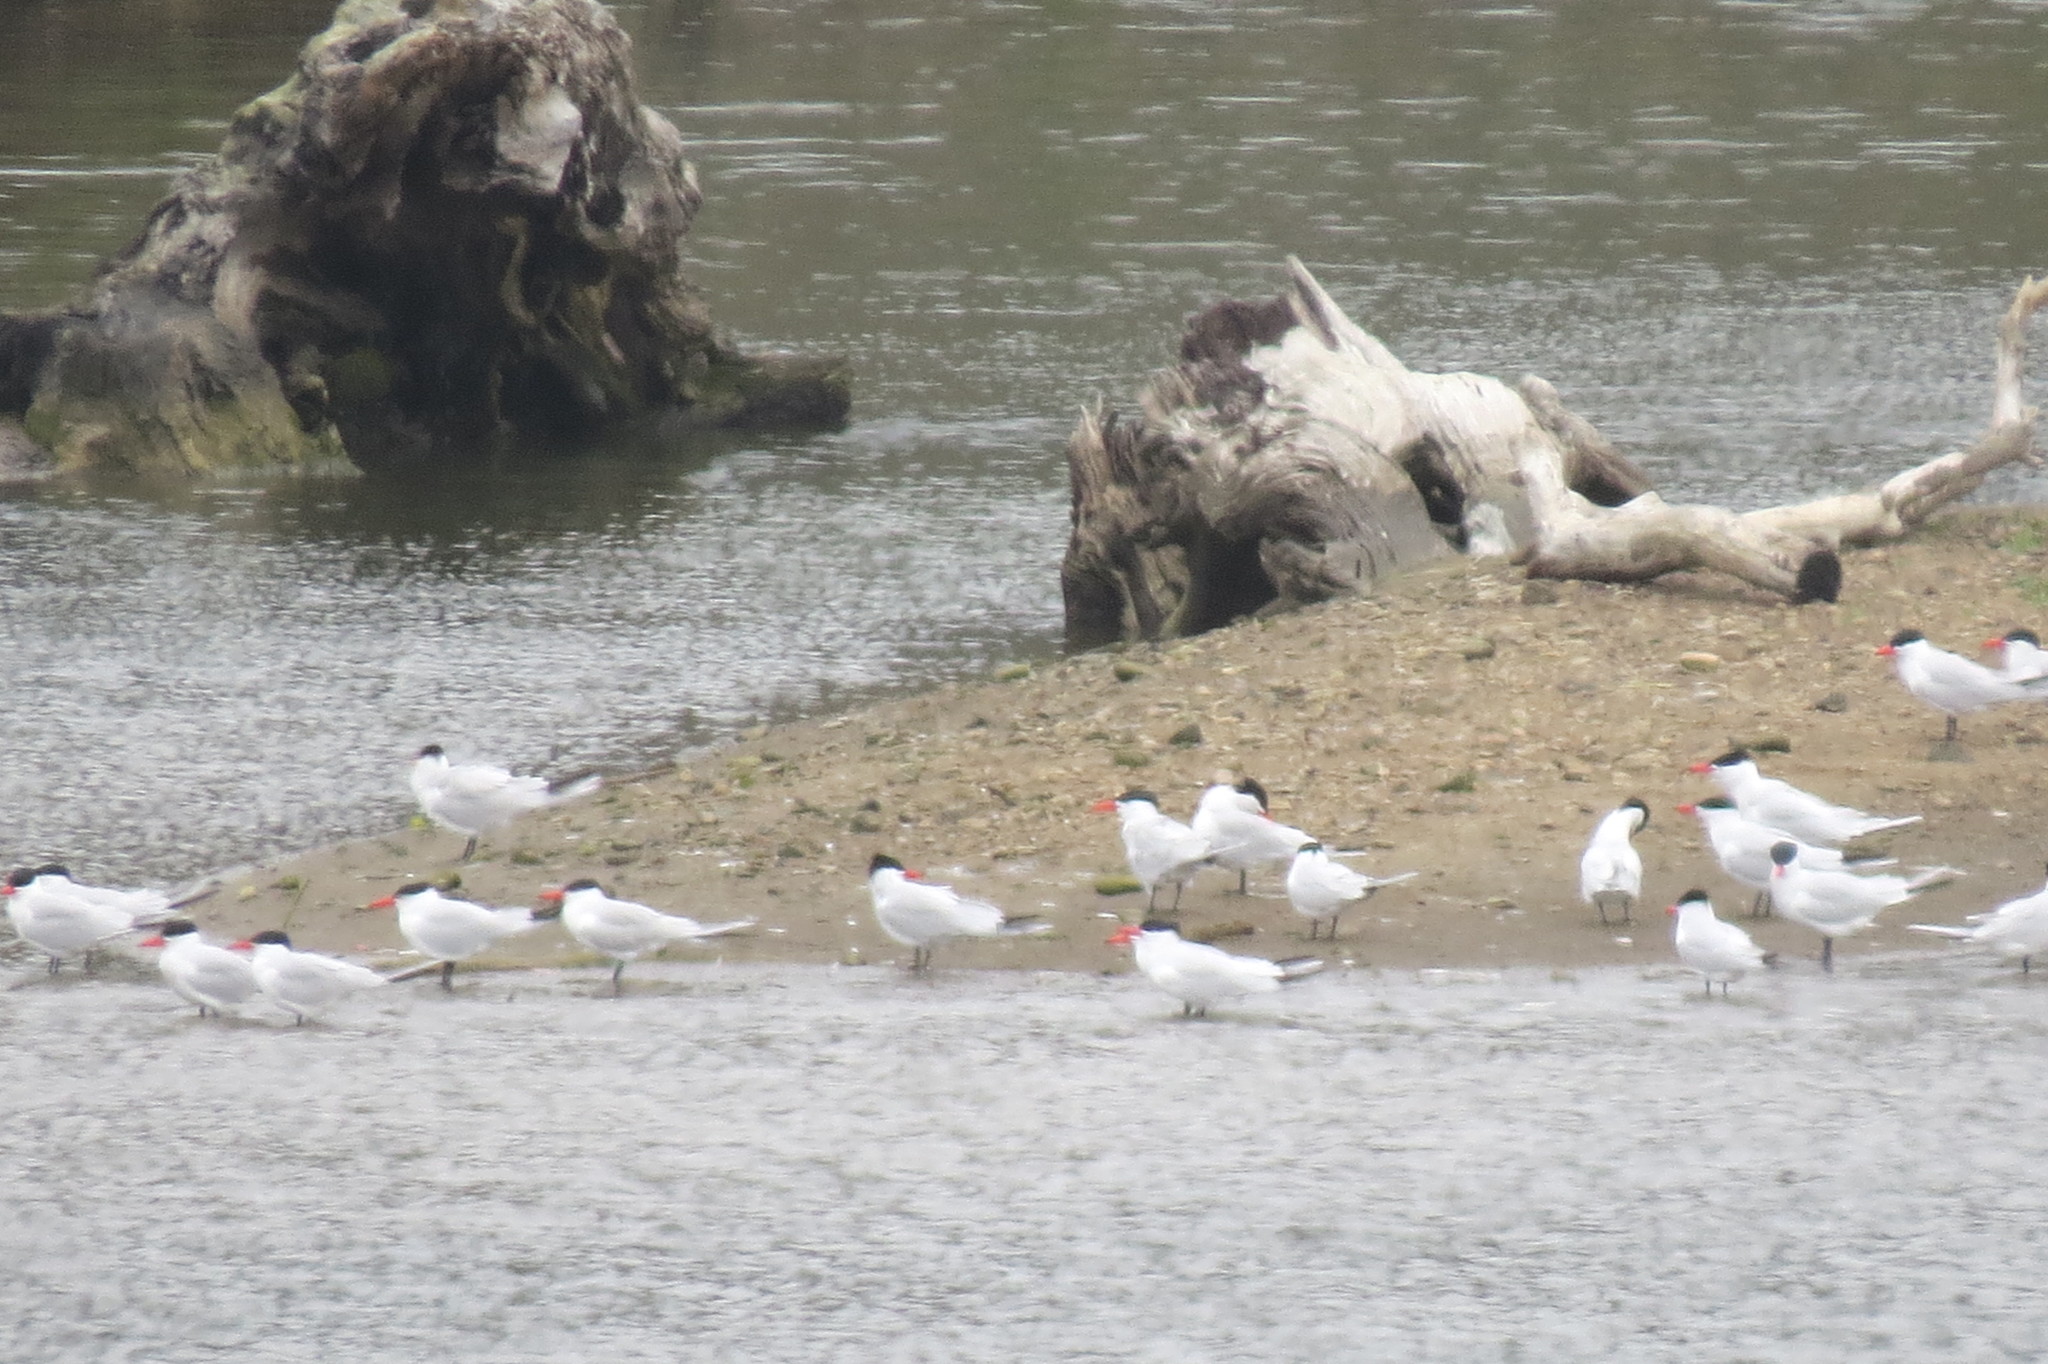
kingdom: Animalia
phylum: Chordata
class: Aves
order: Charadriiformes
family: Laridae
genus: Hydroprogne
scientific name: Hydroprogne caspia
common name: Caspian tern
